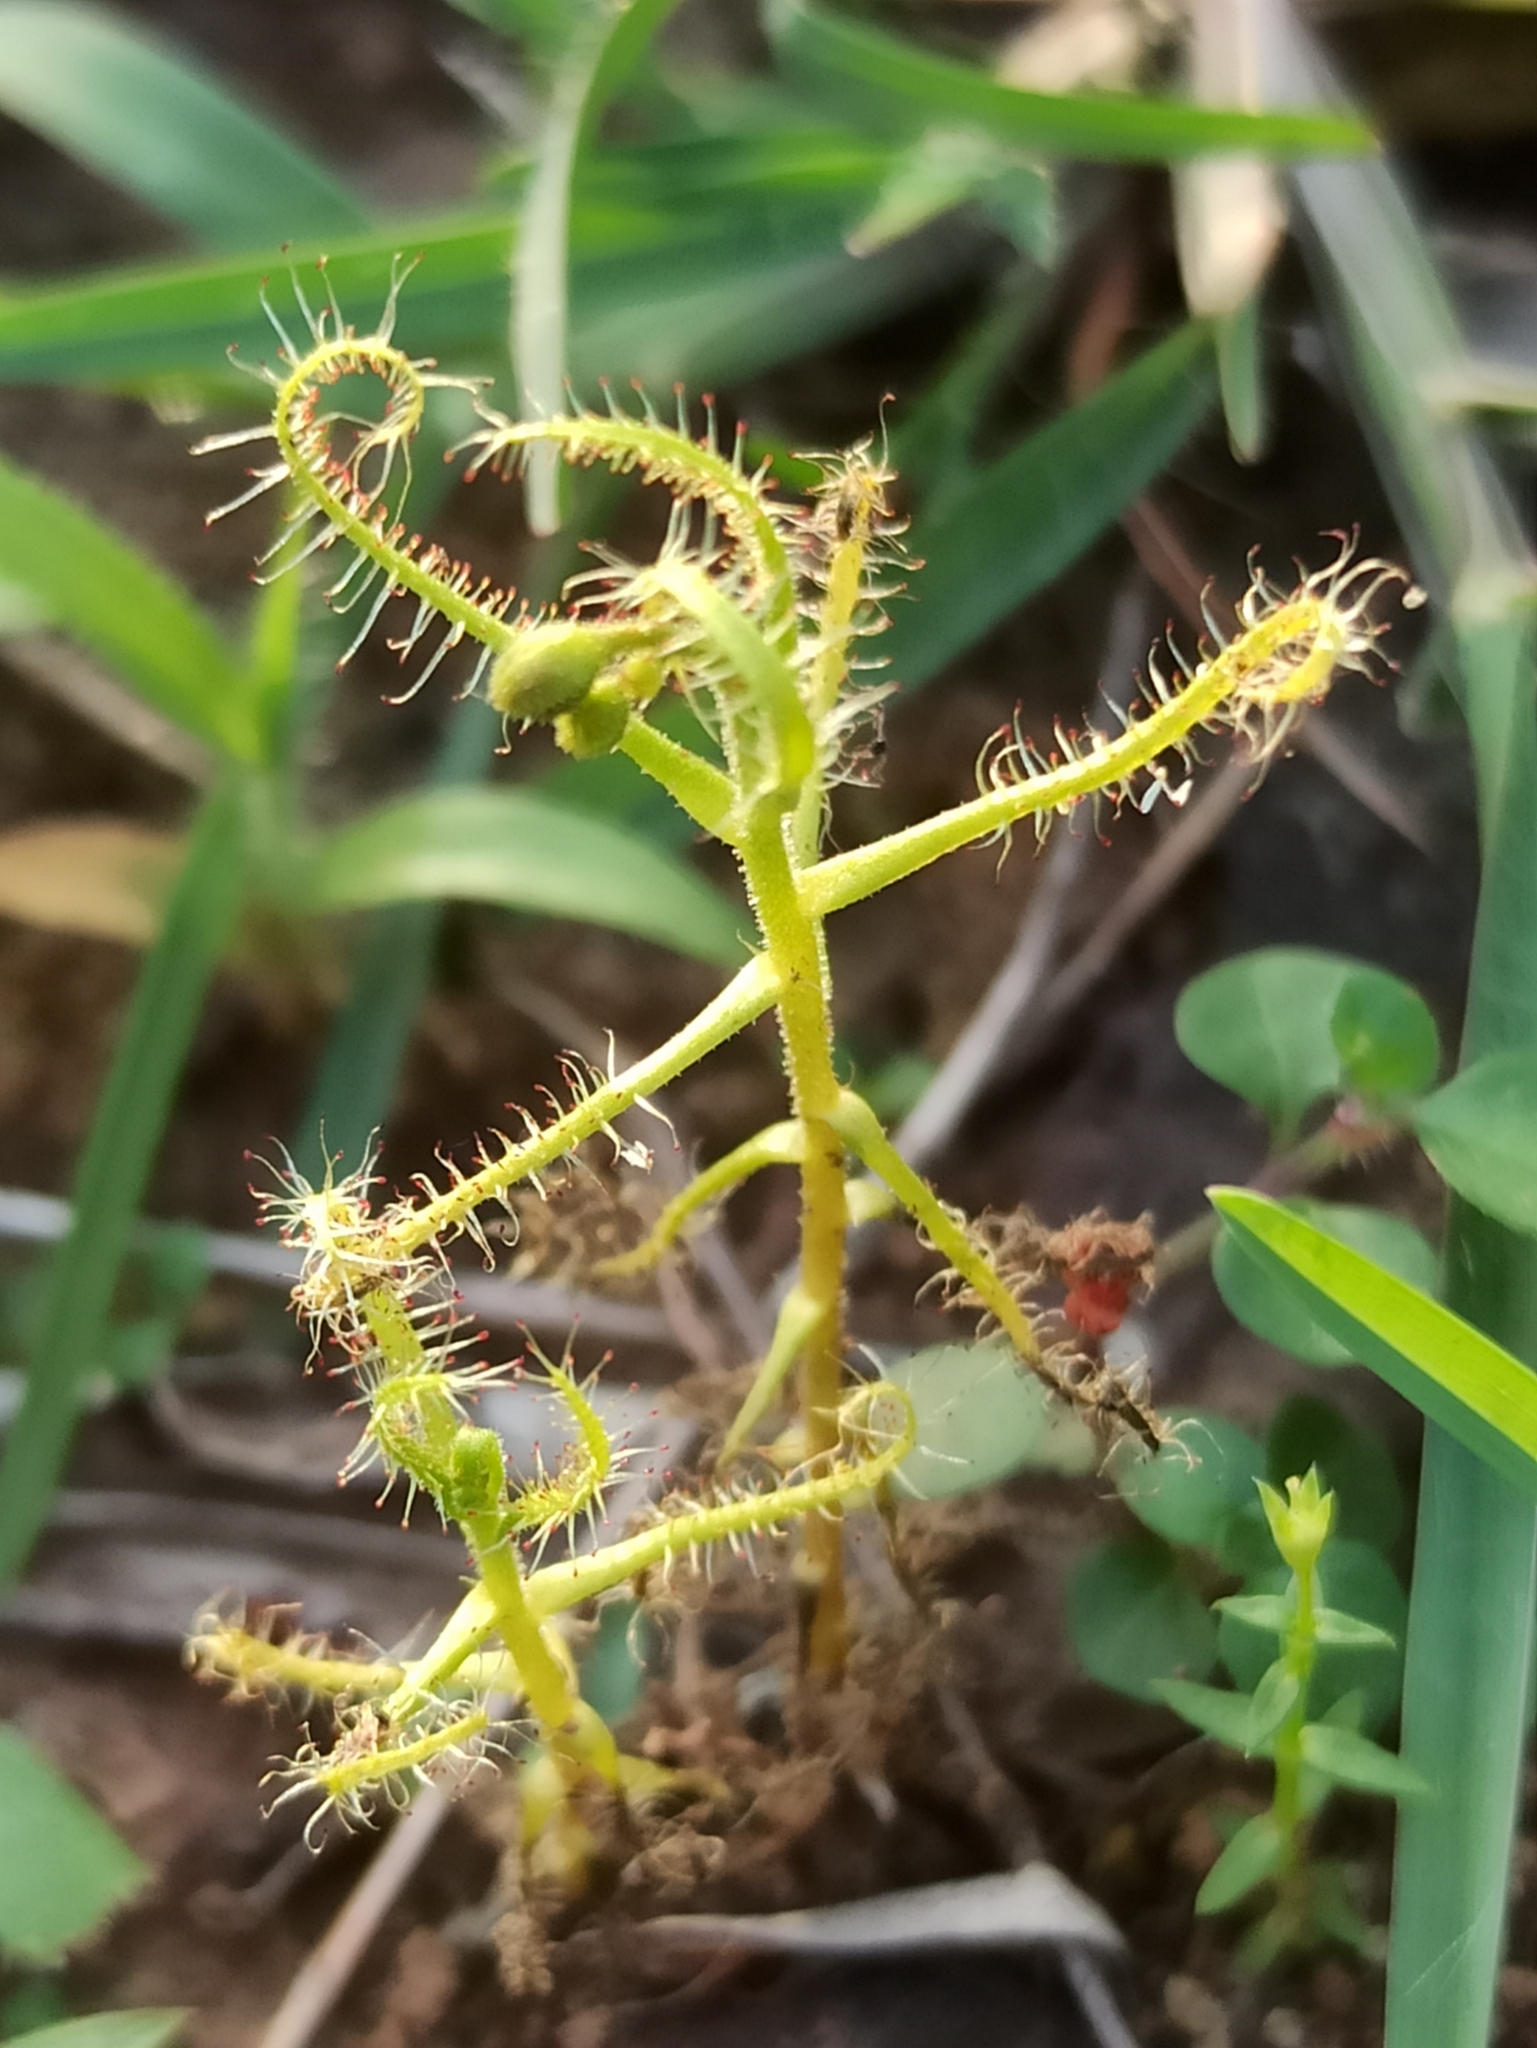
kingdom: Plantae
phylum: Tracheophyta
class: Magnoliopsida
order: Caryophyllales
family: Droseraceae
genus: Drosera
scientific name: Drosera indica
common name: Indian sundew
